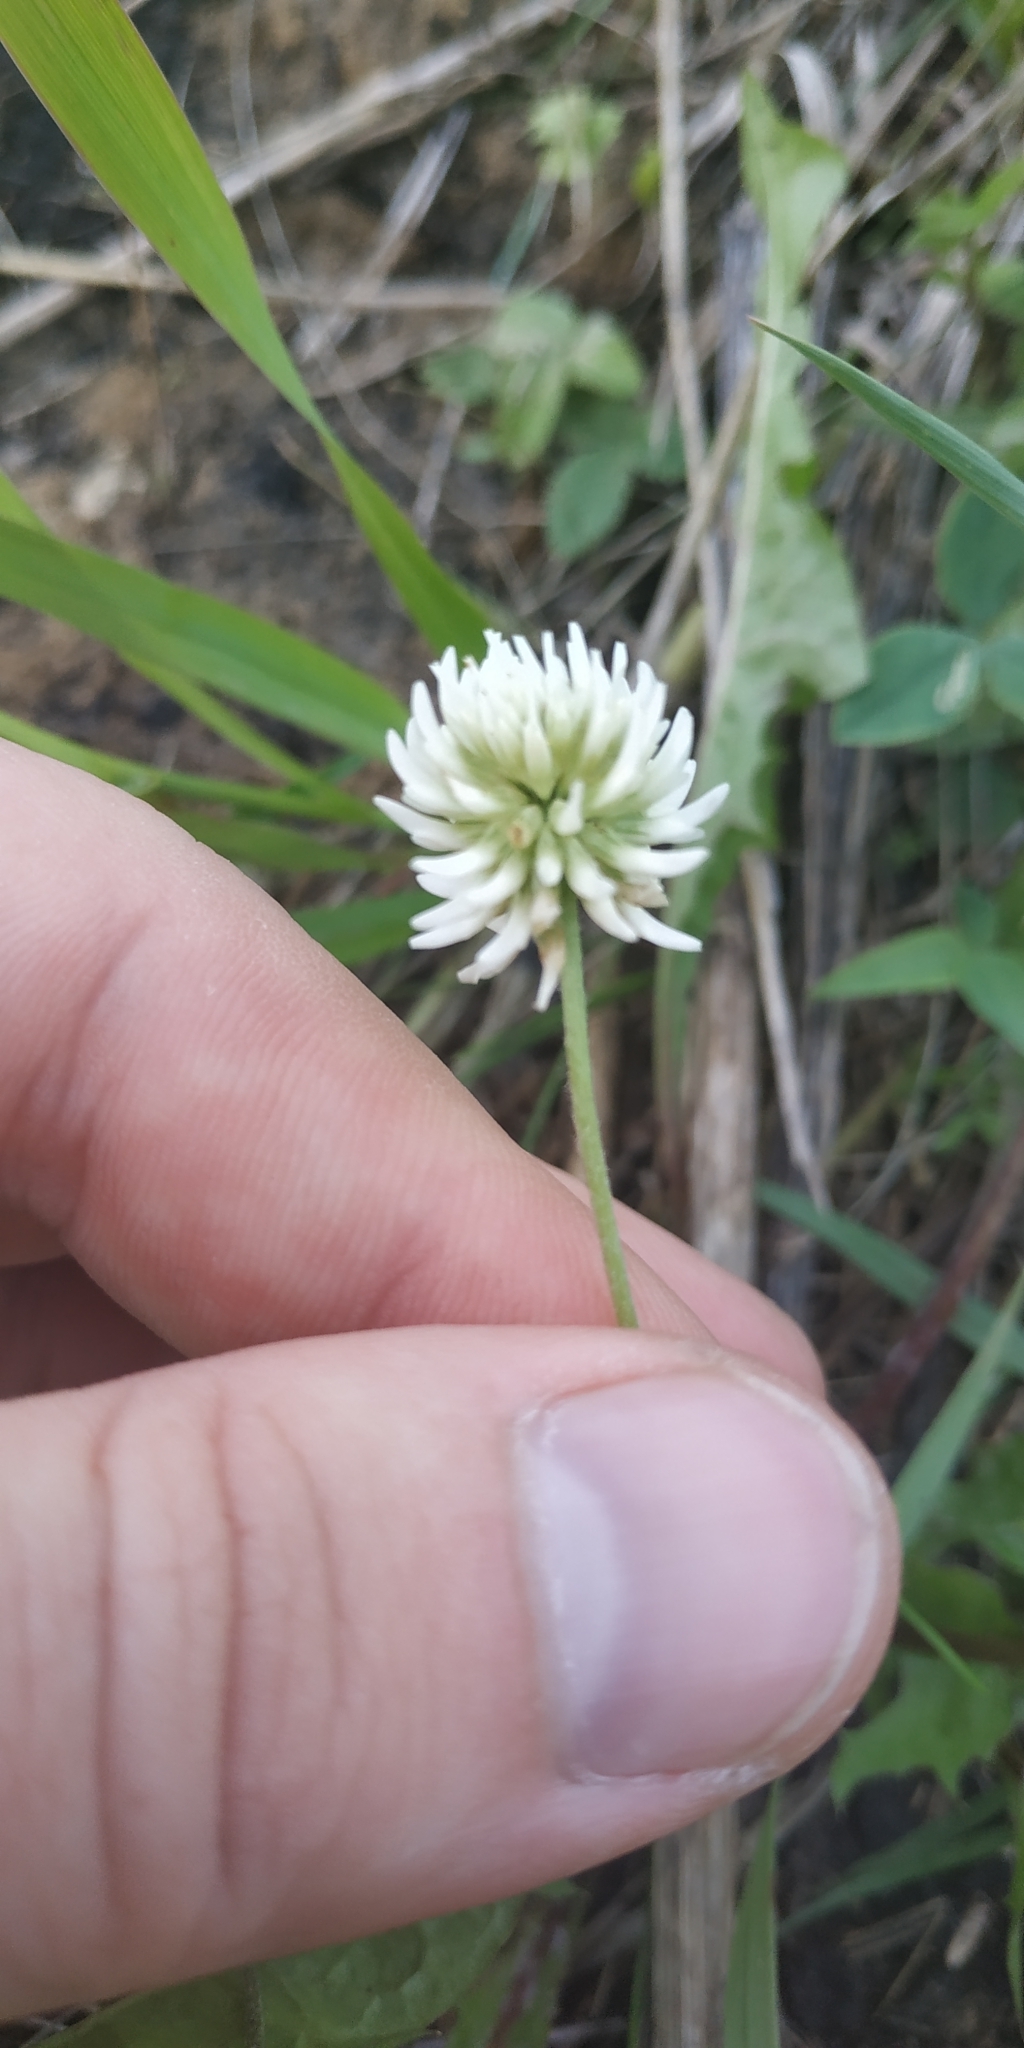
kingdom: Plantae
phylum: Tracheophyta
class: Magnoliopsida
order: Fabales
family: Fabaceae
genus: Trifolium
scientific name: Trifolium montanum
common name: Mountain clover
